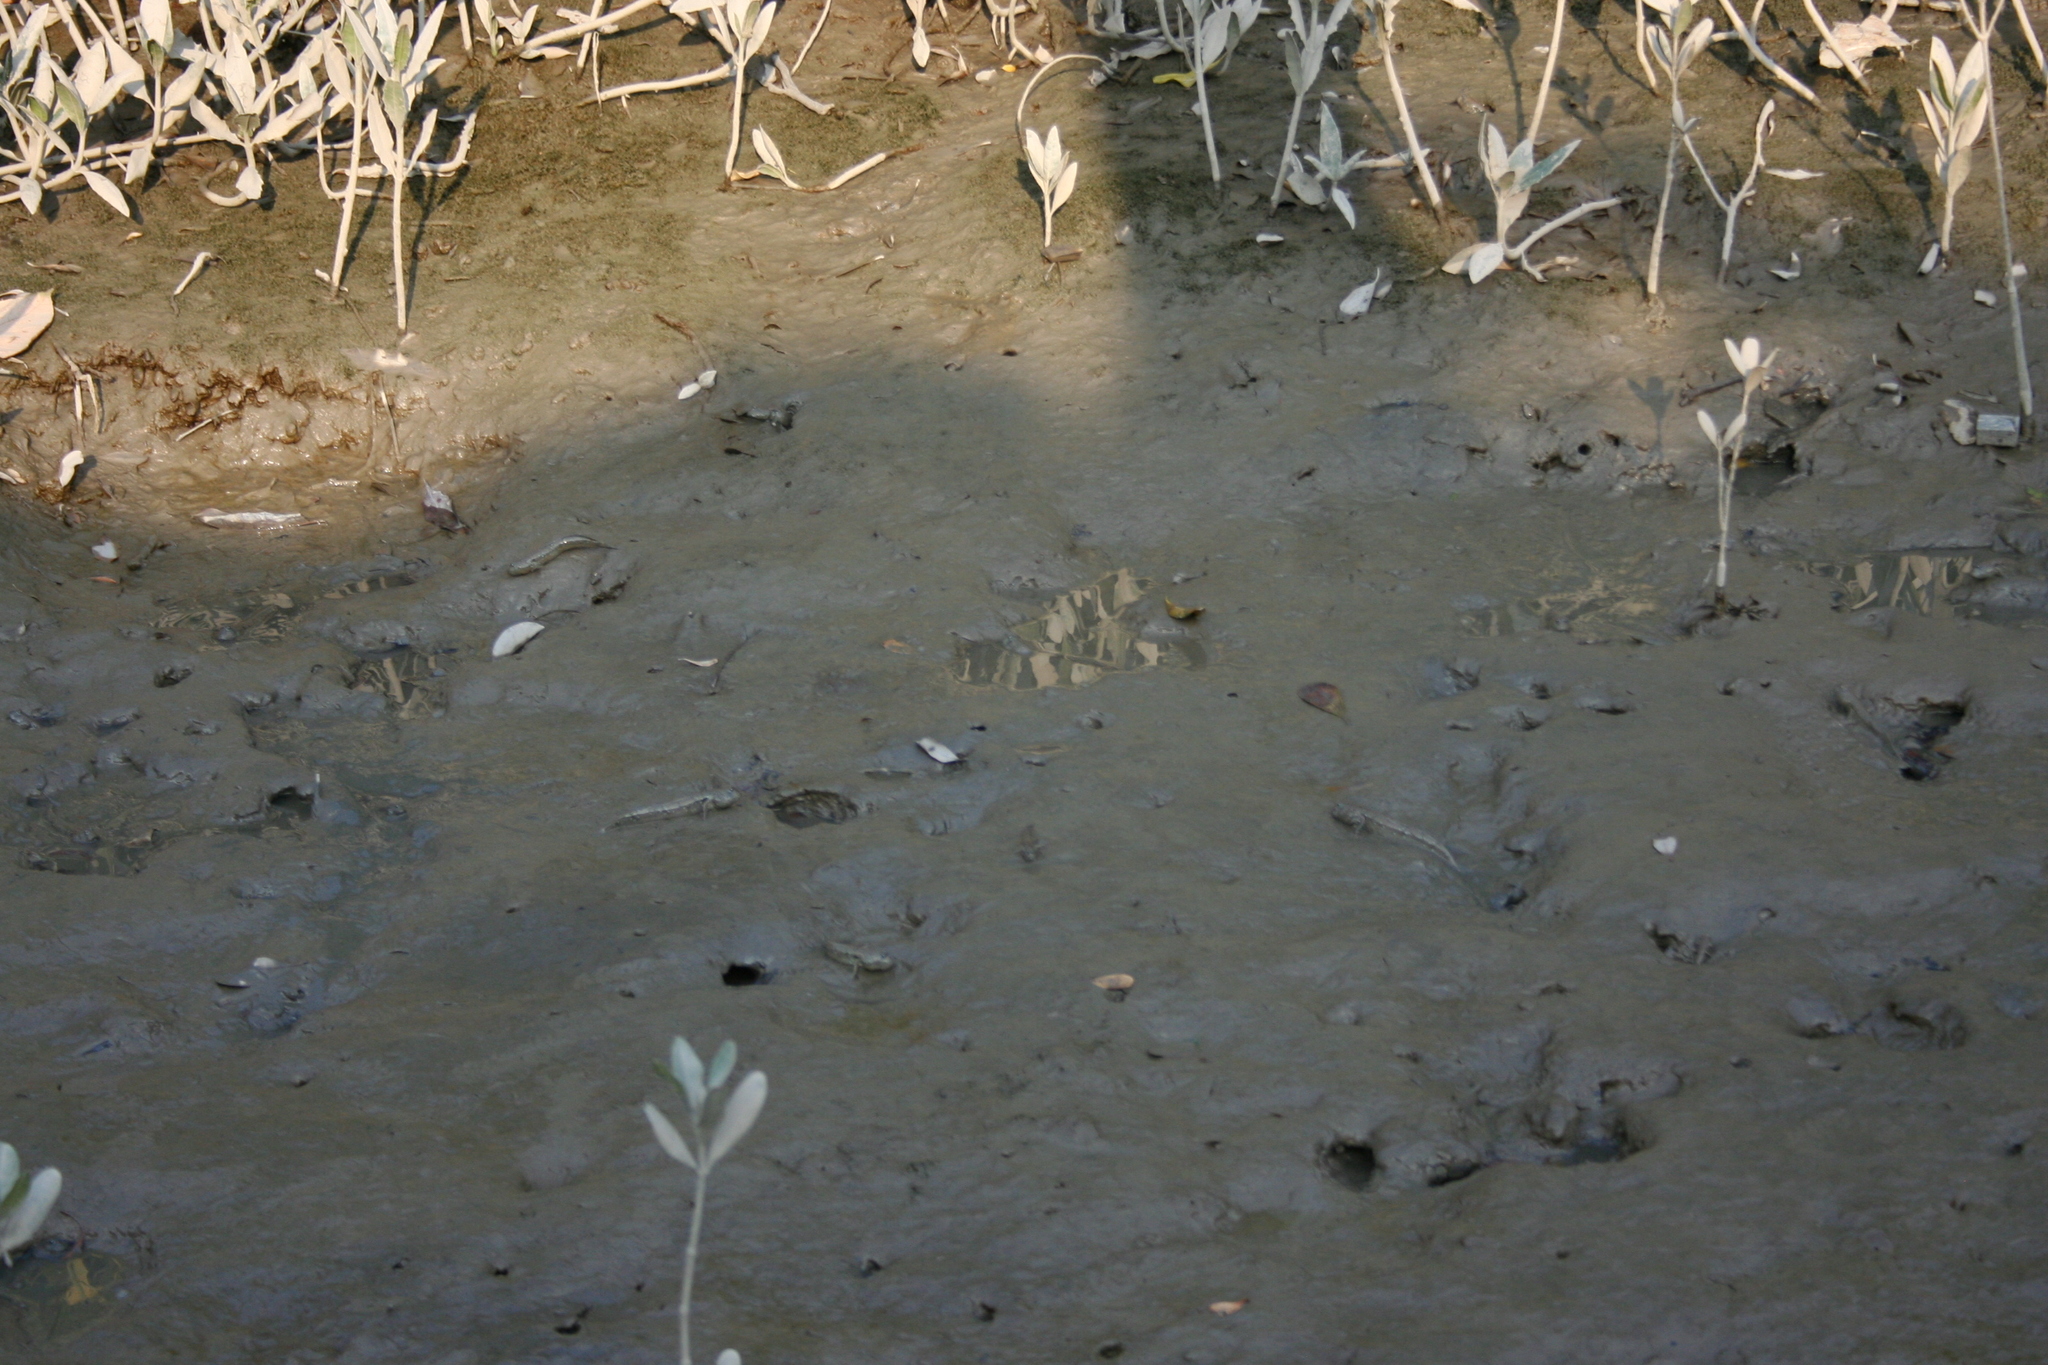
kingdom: Animalia
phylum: Chordata
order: Perciformes
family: Gobiidae
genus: Boleophthalmus
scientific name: Boleophthalmus pectinirostris
